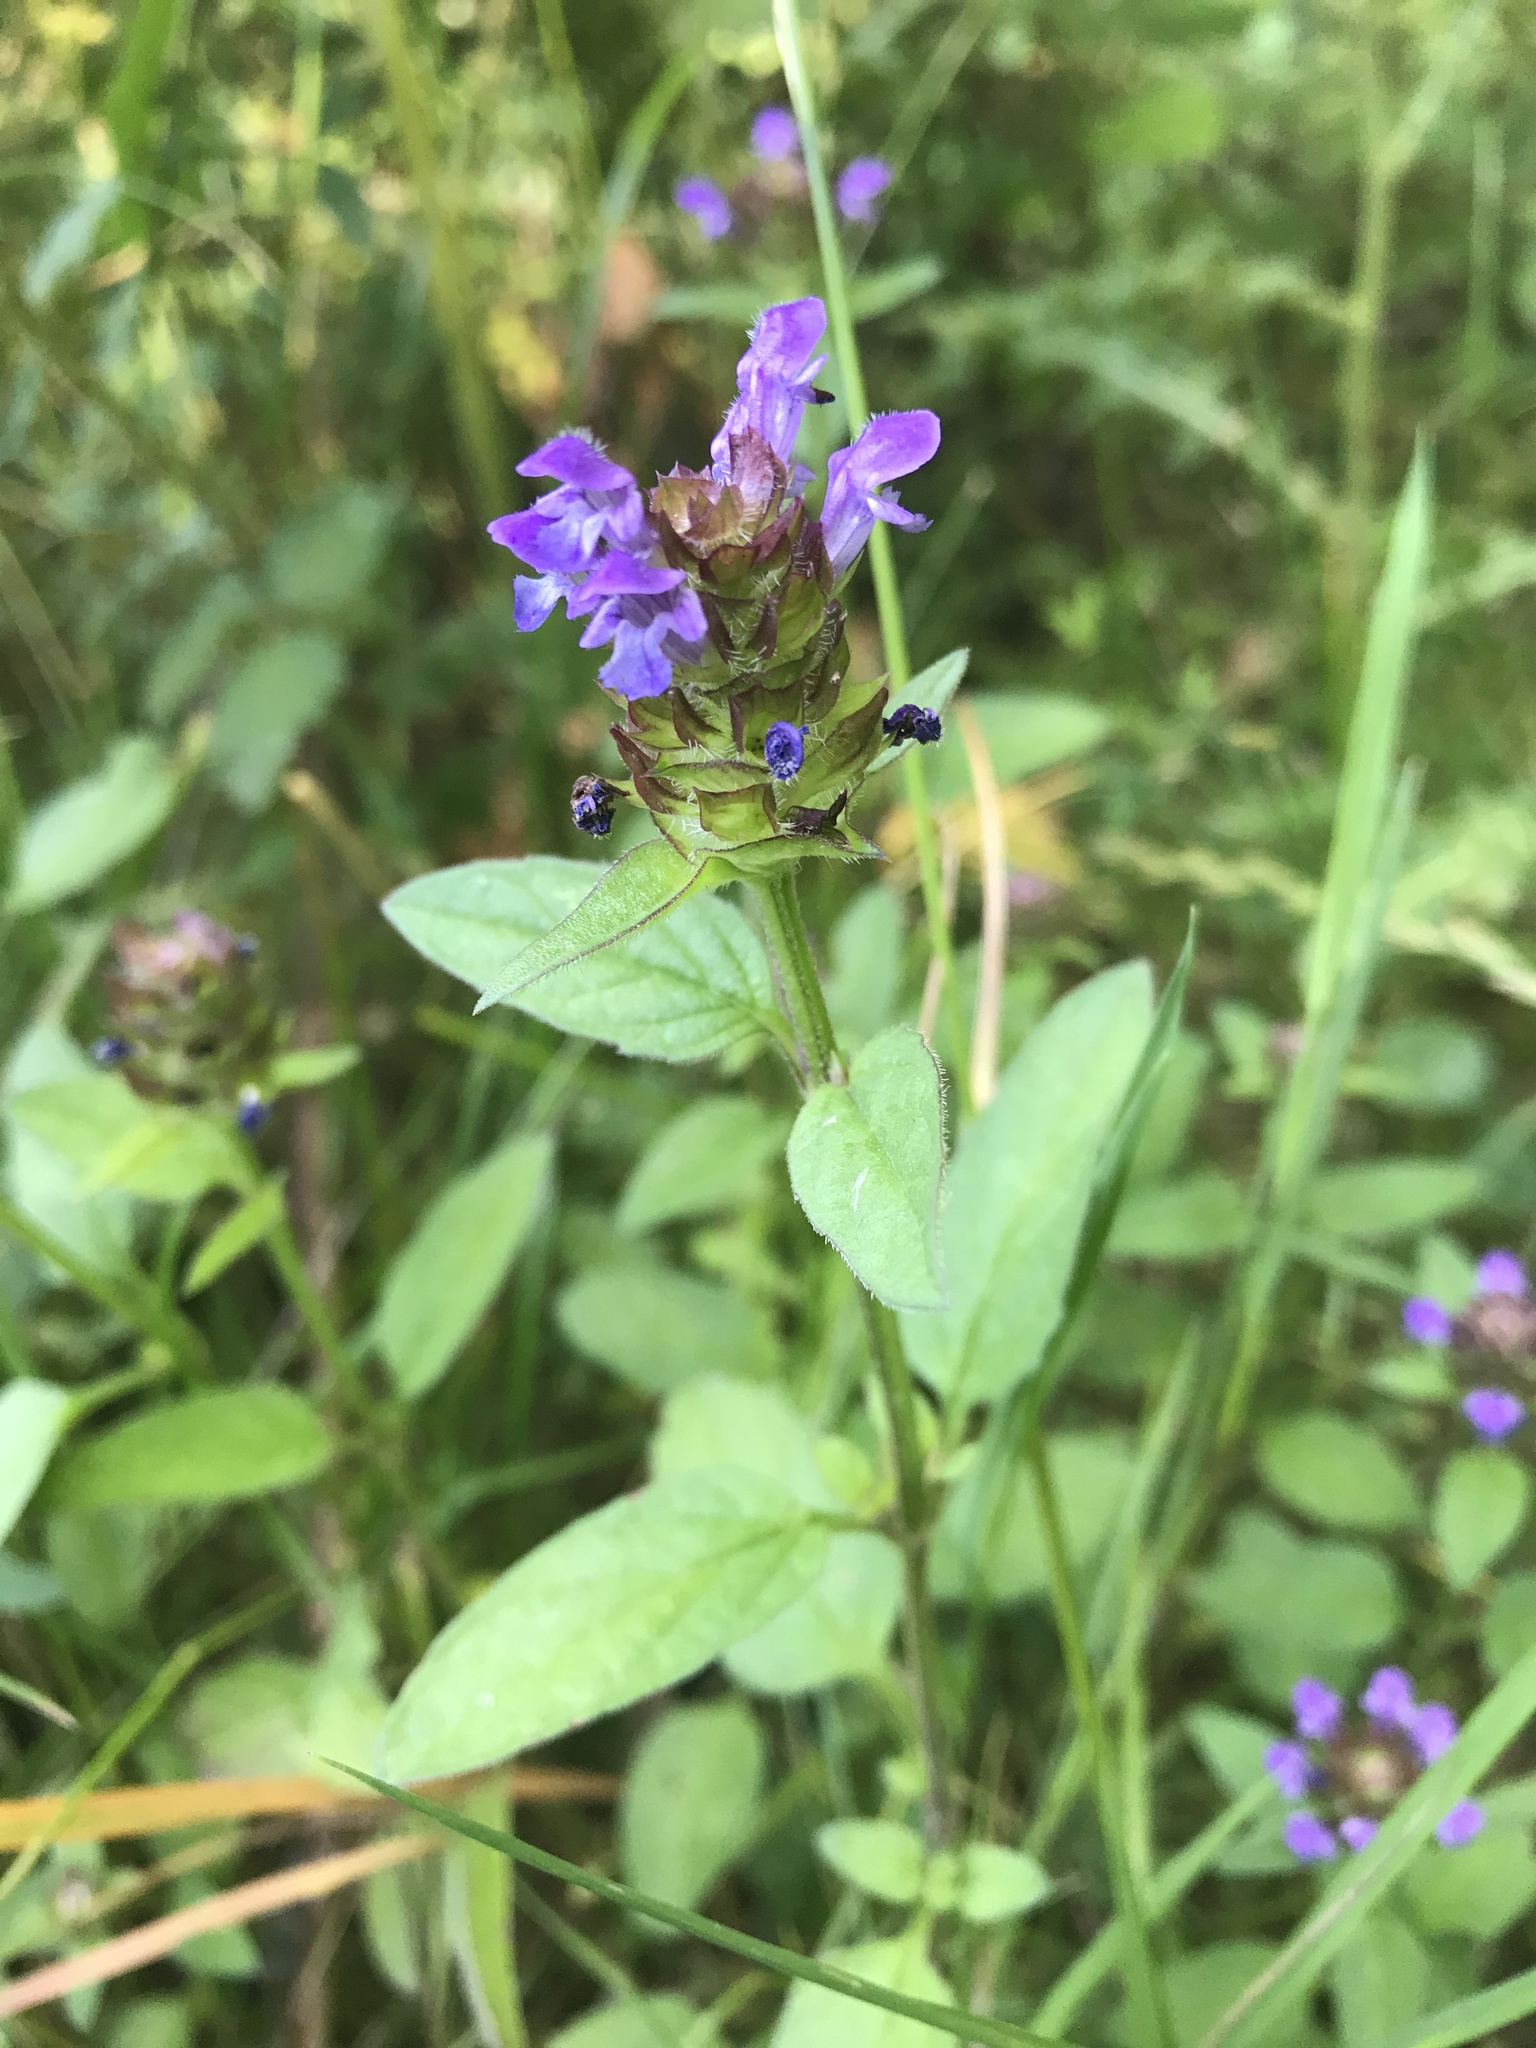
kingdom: Plantae
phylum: Tracheophyta
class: Magnoliopsida
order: Lamiales
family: Lamiaceae
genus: Prunella
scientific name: Prunella vulgaris
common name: Heal-all
